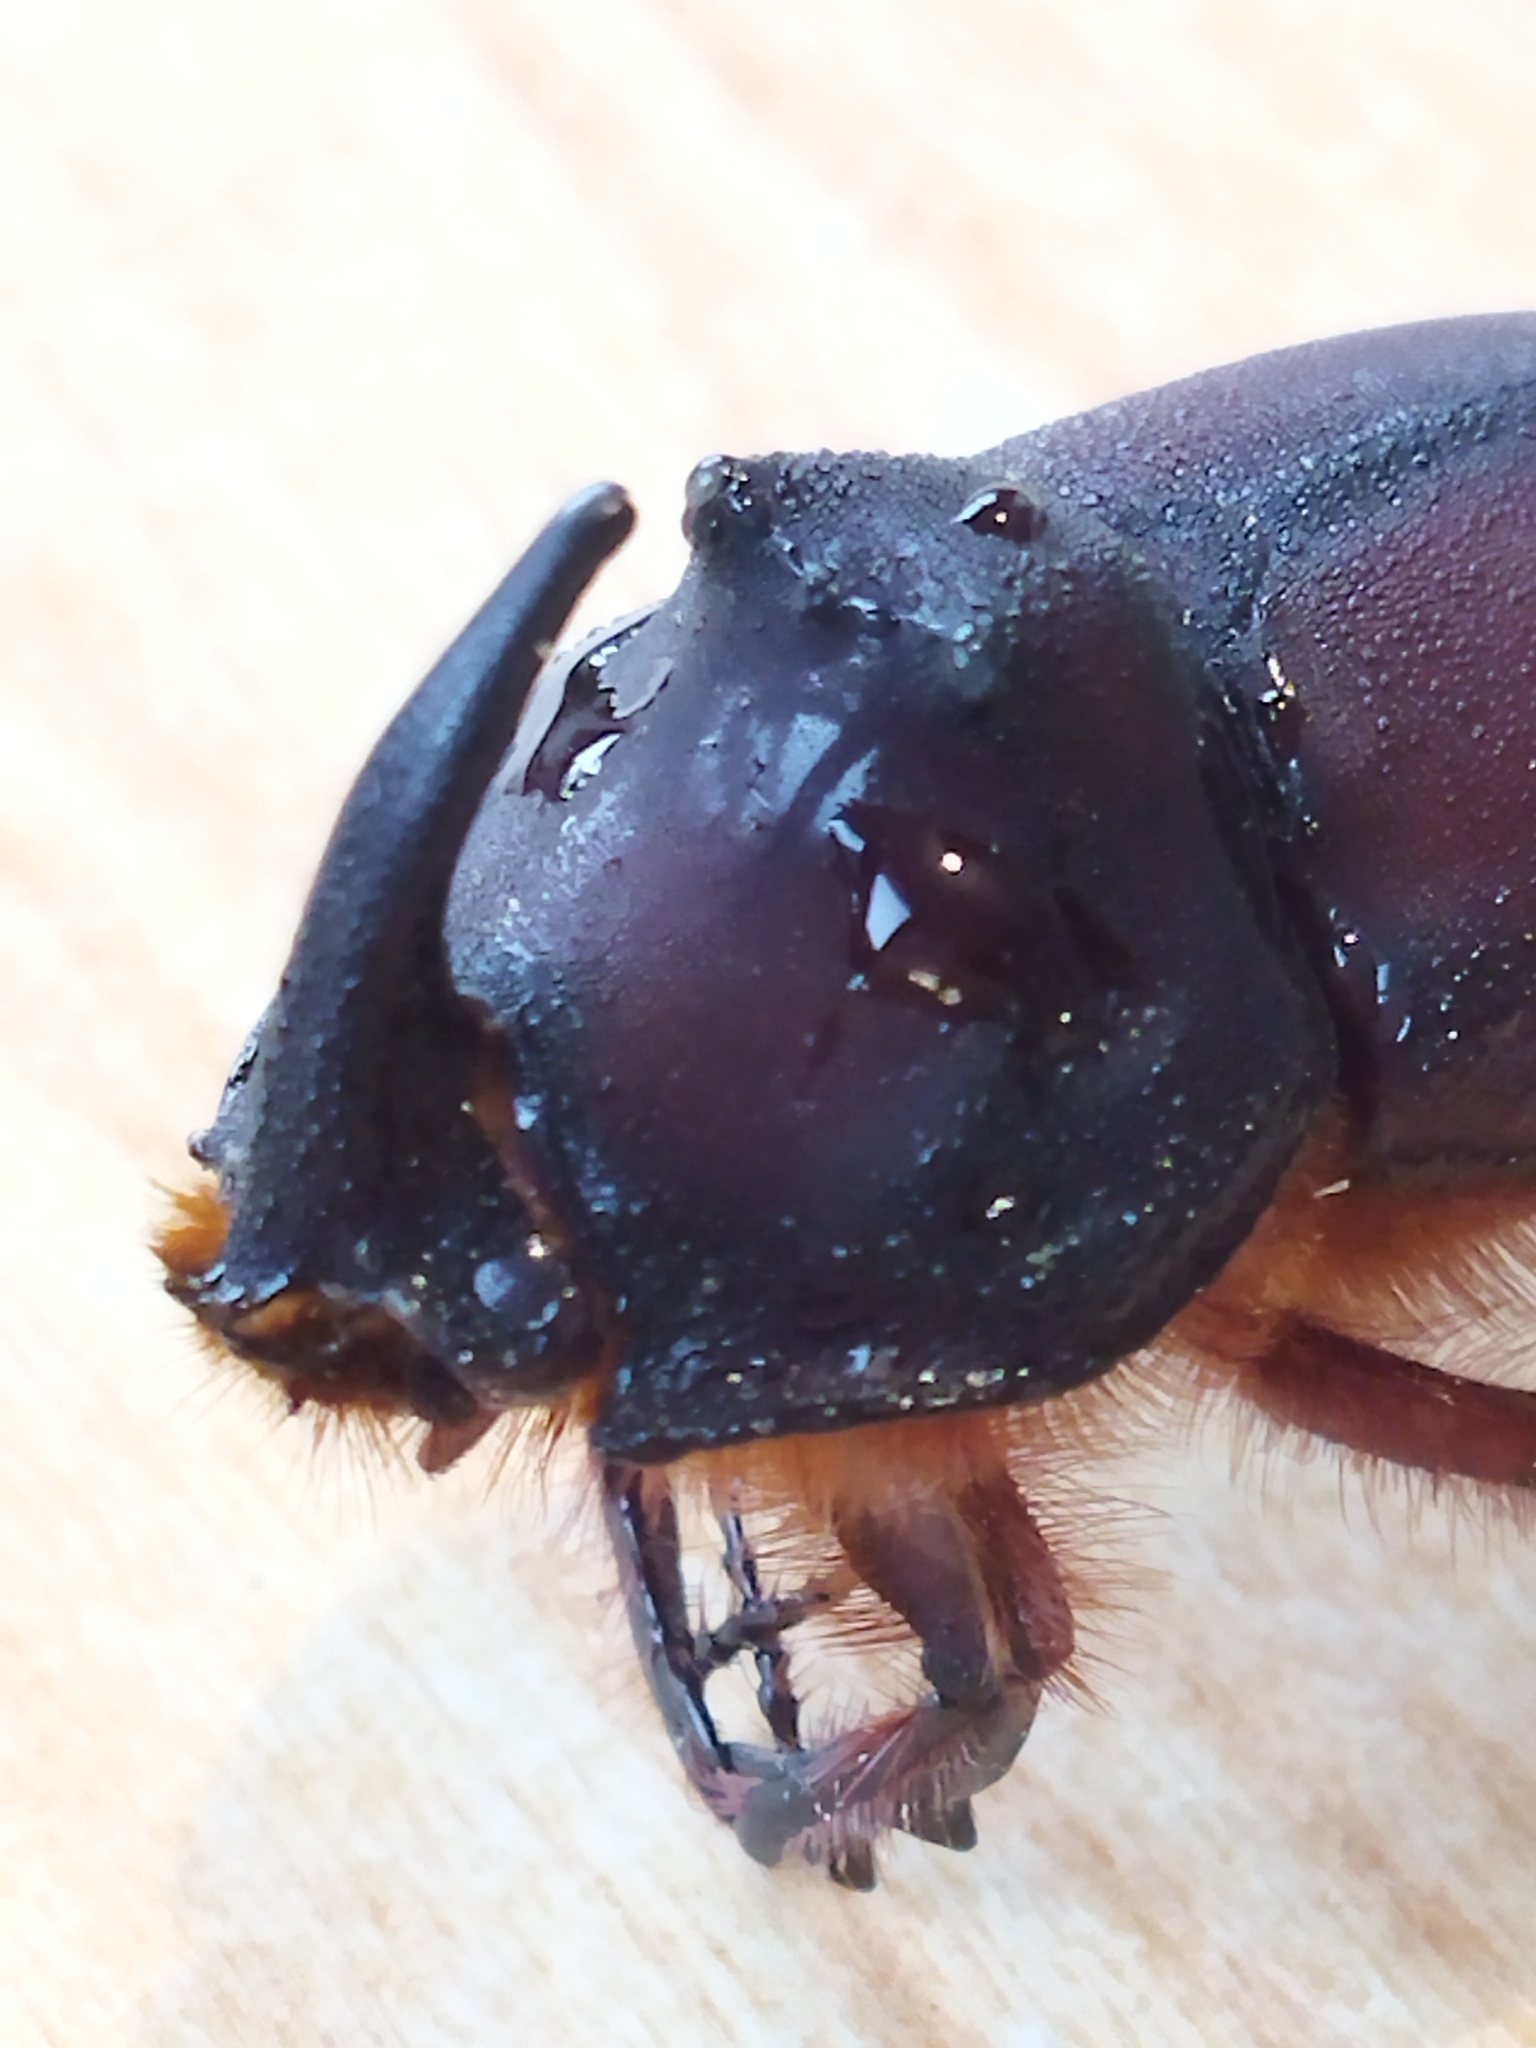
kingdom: Animalia
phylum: Arthropoda
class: Insecta
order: Coleoptera
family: Scarabaeidae
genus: Oryctes
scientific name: Oryctes nasicornis
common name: European rhinoceros beetle
